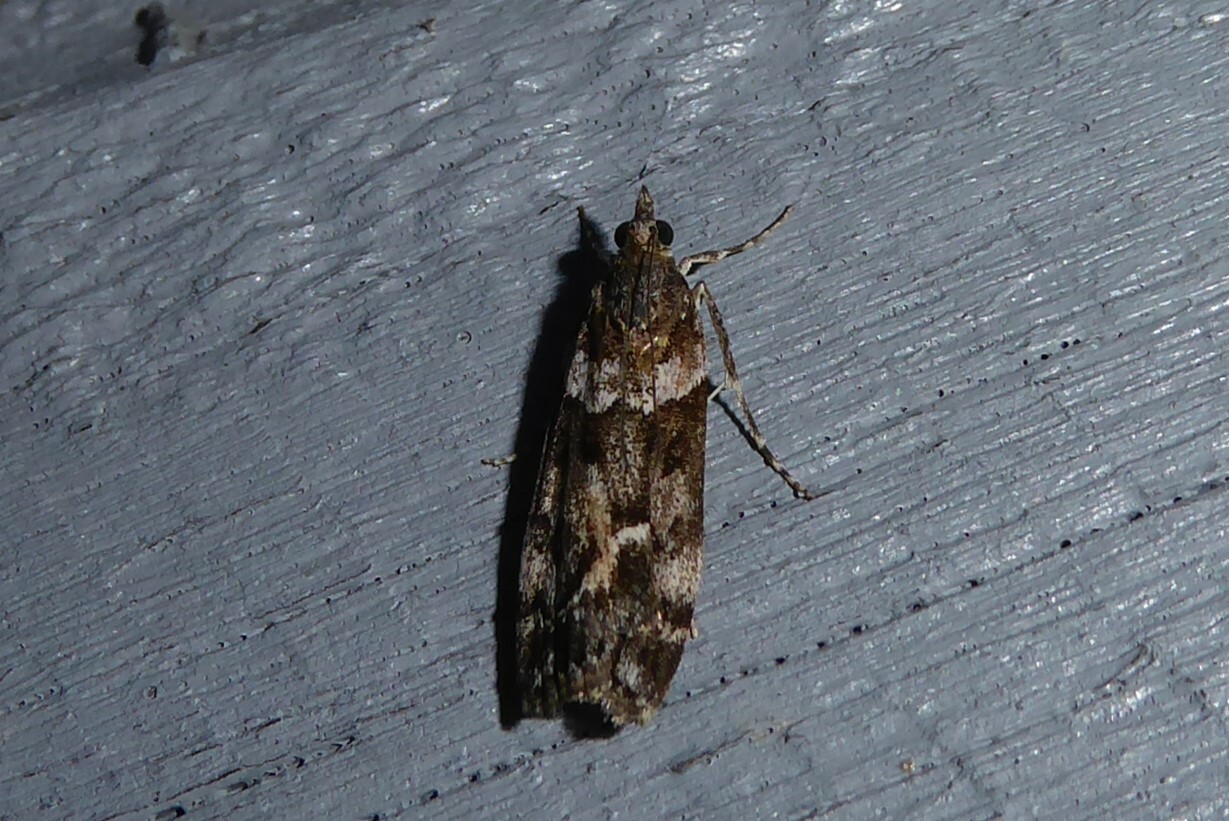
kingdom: Animalia
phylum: Arthropoda
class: Insecta
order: Lepidoptera
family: Crambidae
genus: Eudonia
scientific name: Eudonia submarginalis
